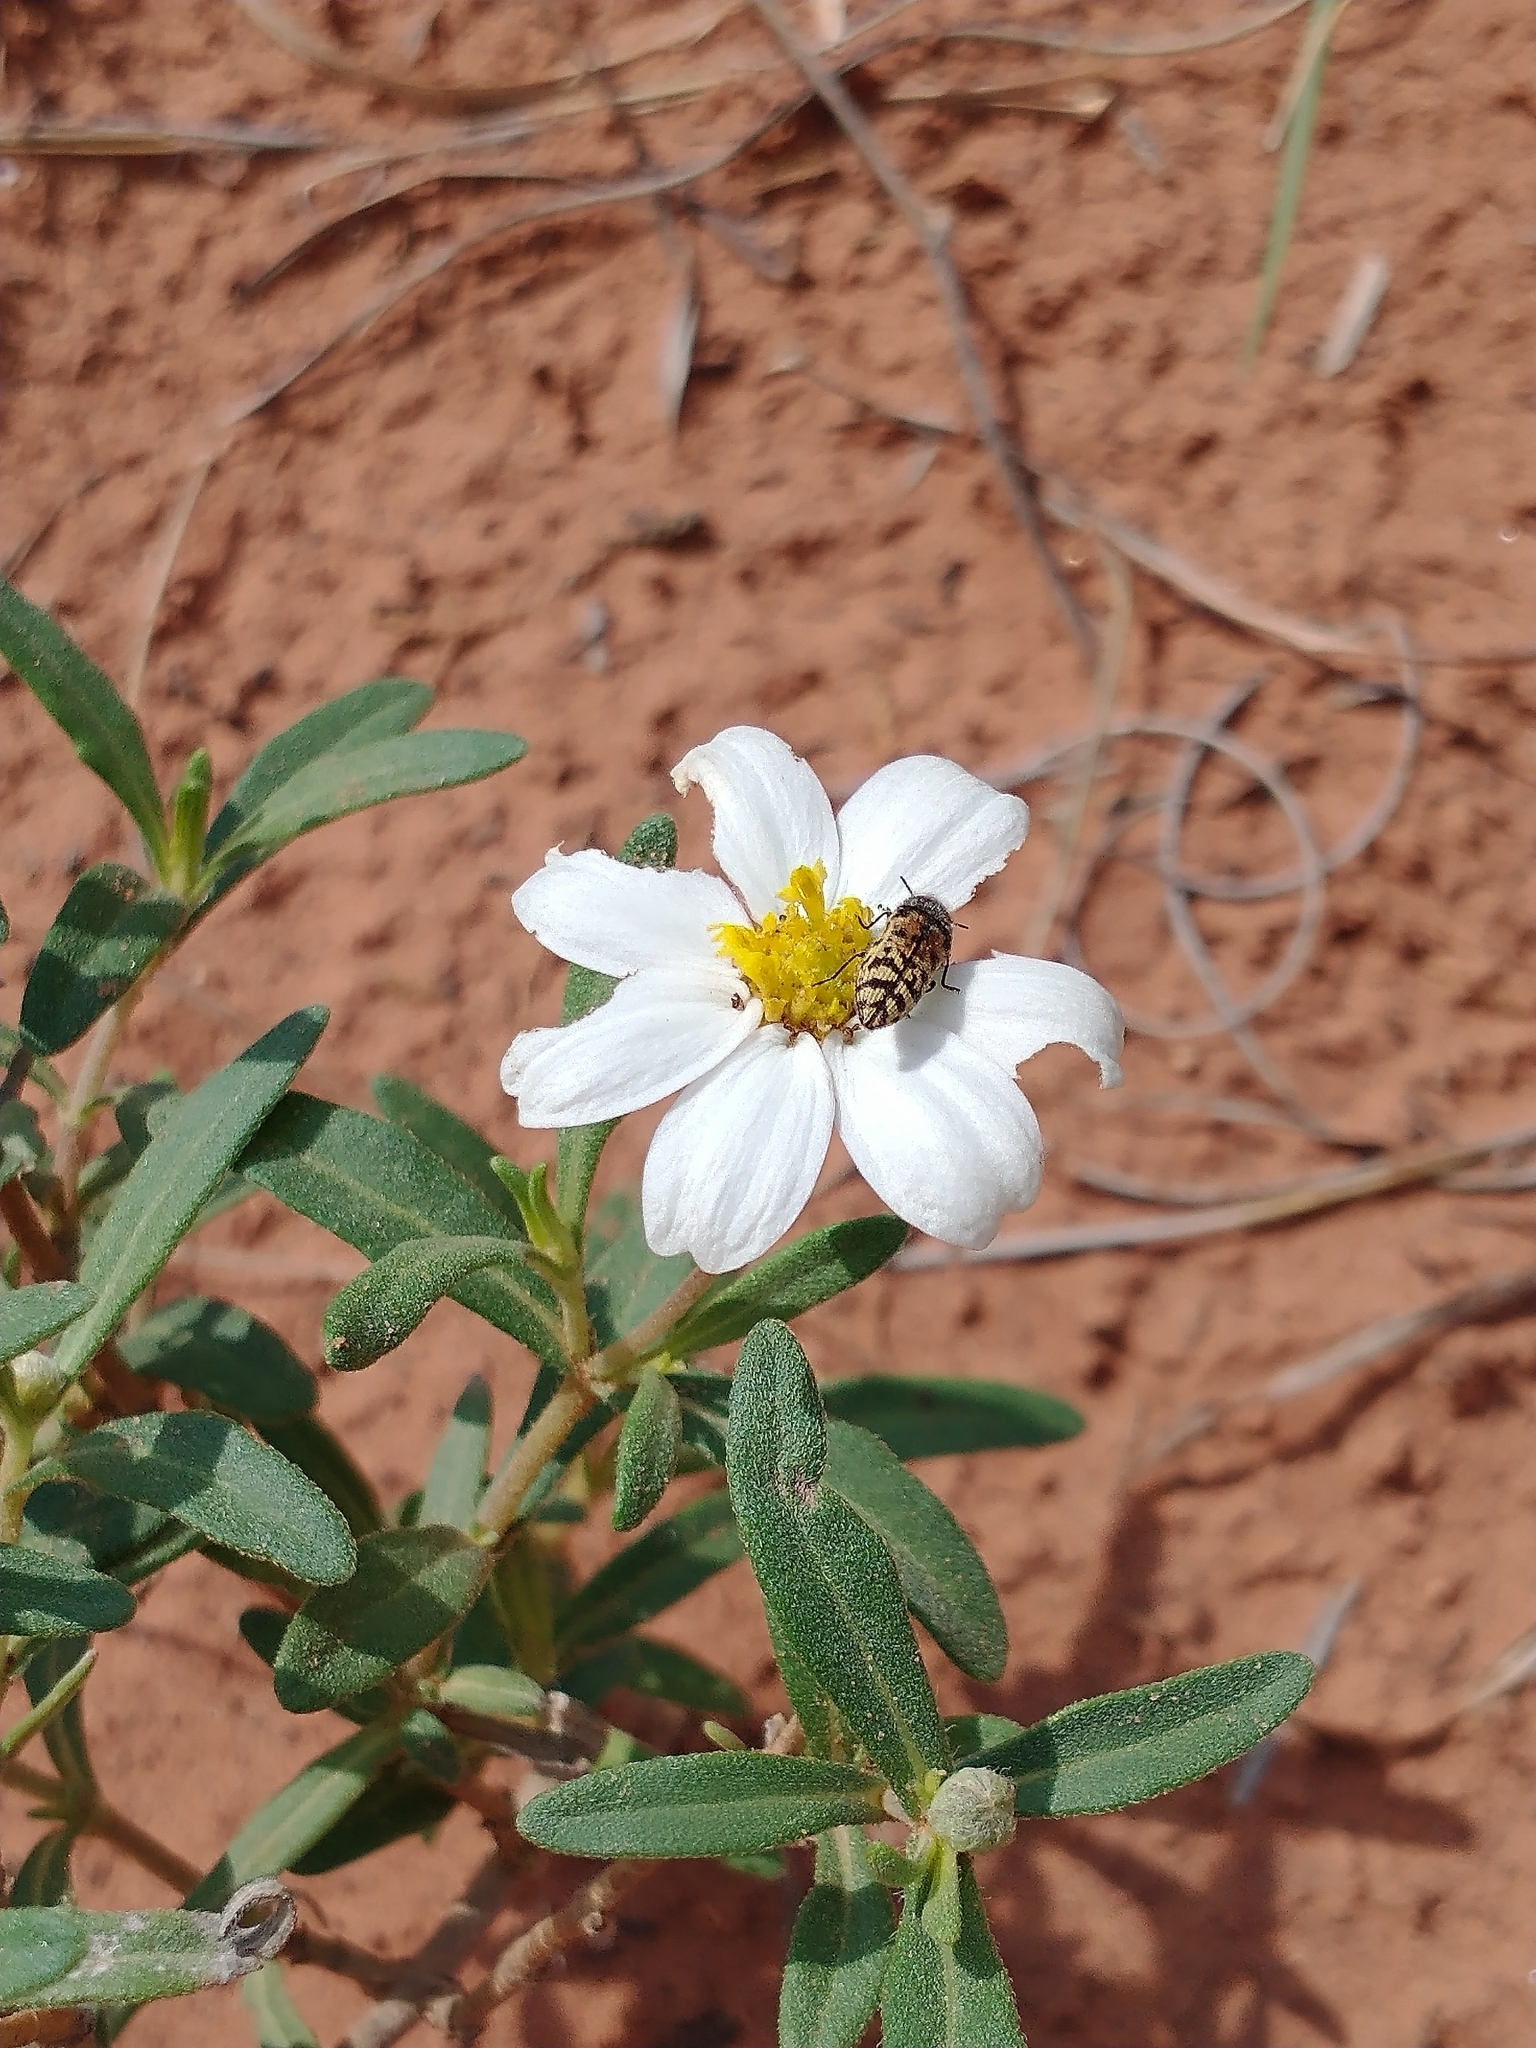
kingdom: Plantae
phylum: Tracheophyta
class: Magnoliopsida
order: Asterales
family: Asteraceae
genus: Melampodium
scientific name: Melampodium leucanthum
